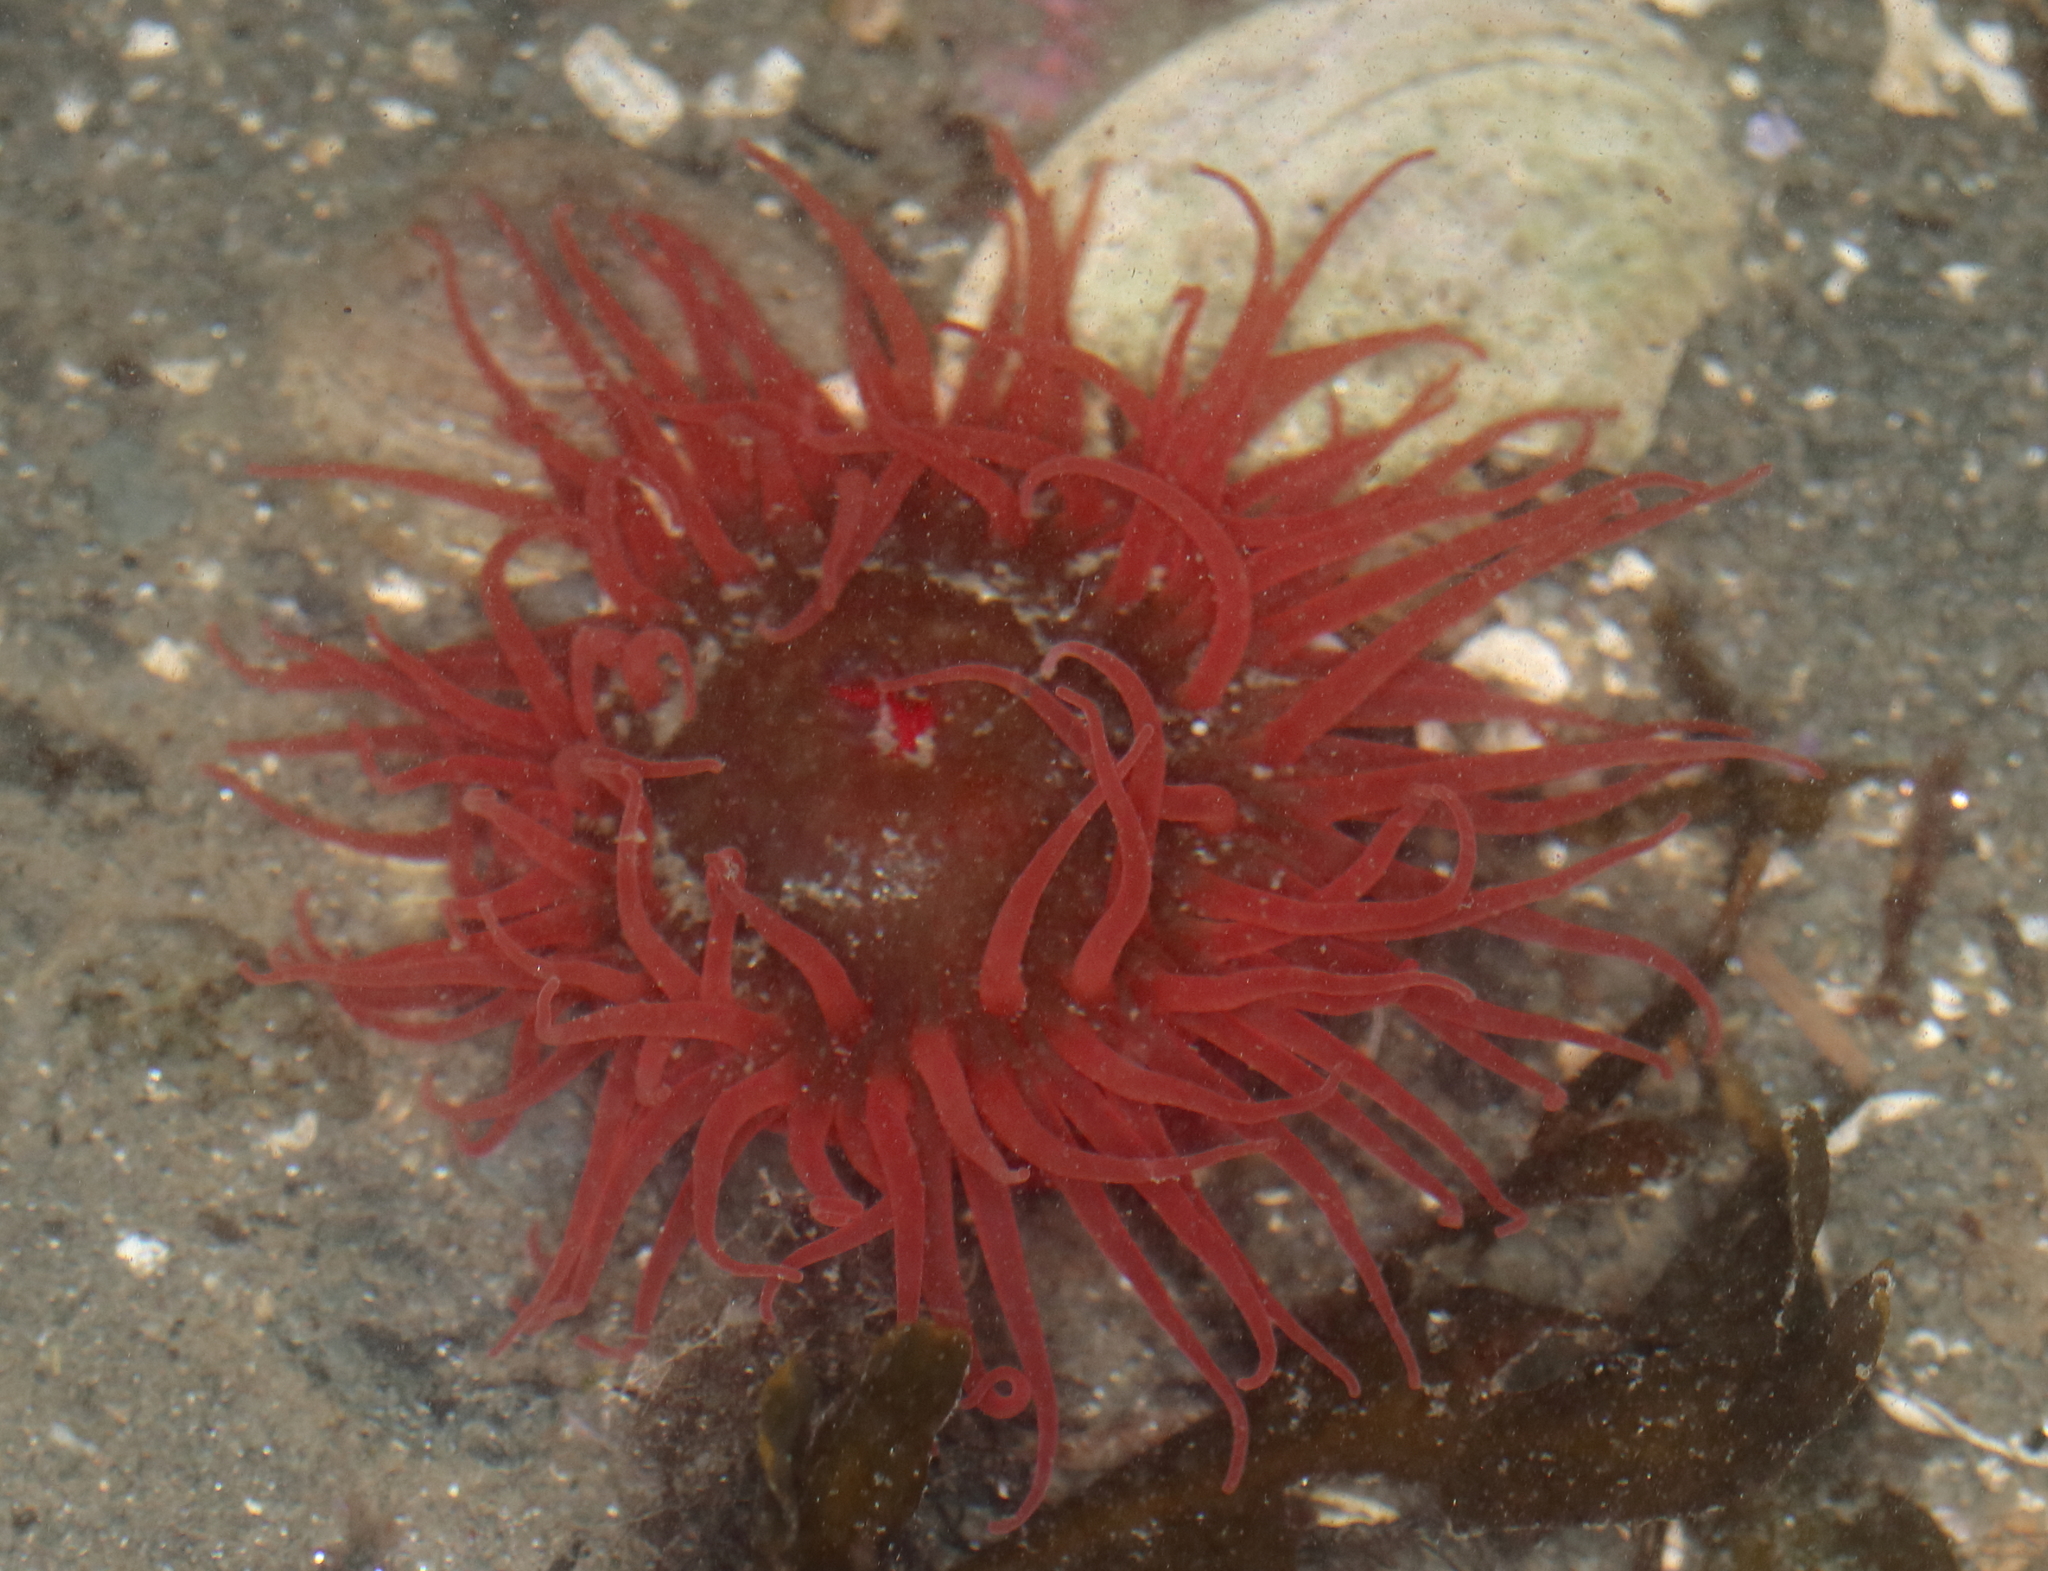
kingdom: Animalia
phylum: Cnidaria
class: Anthozoa
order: Actiniaria
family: Actiniidae
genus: Aulactinia
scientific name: Aulactinia vancouverensis
